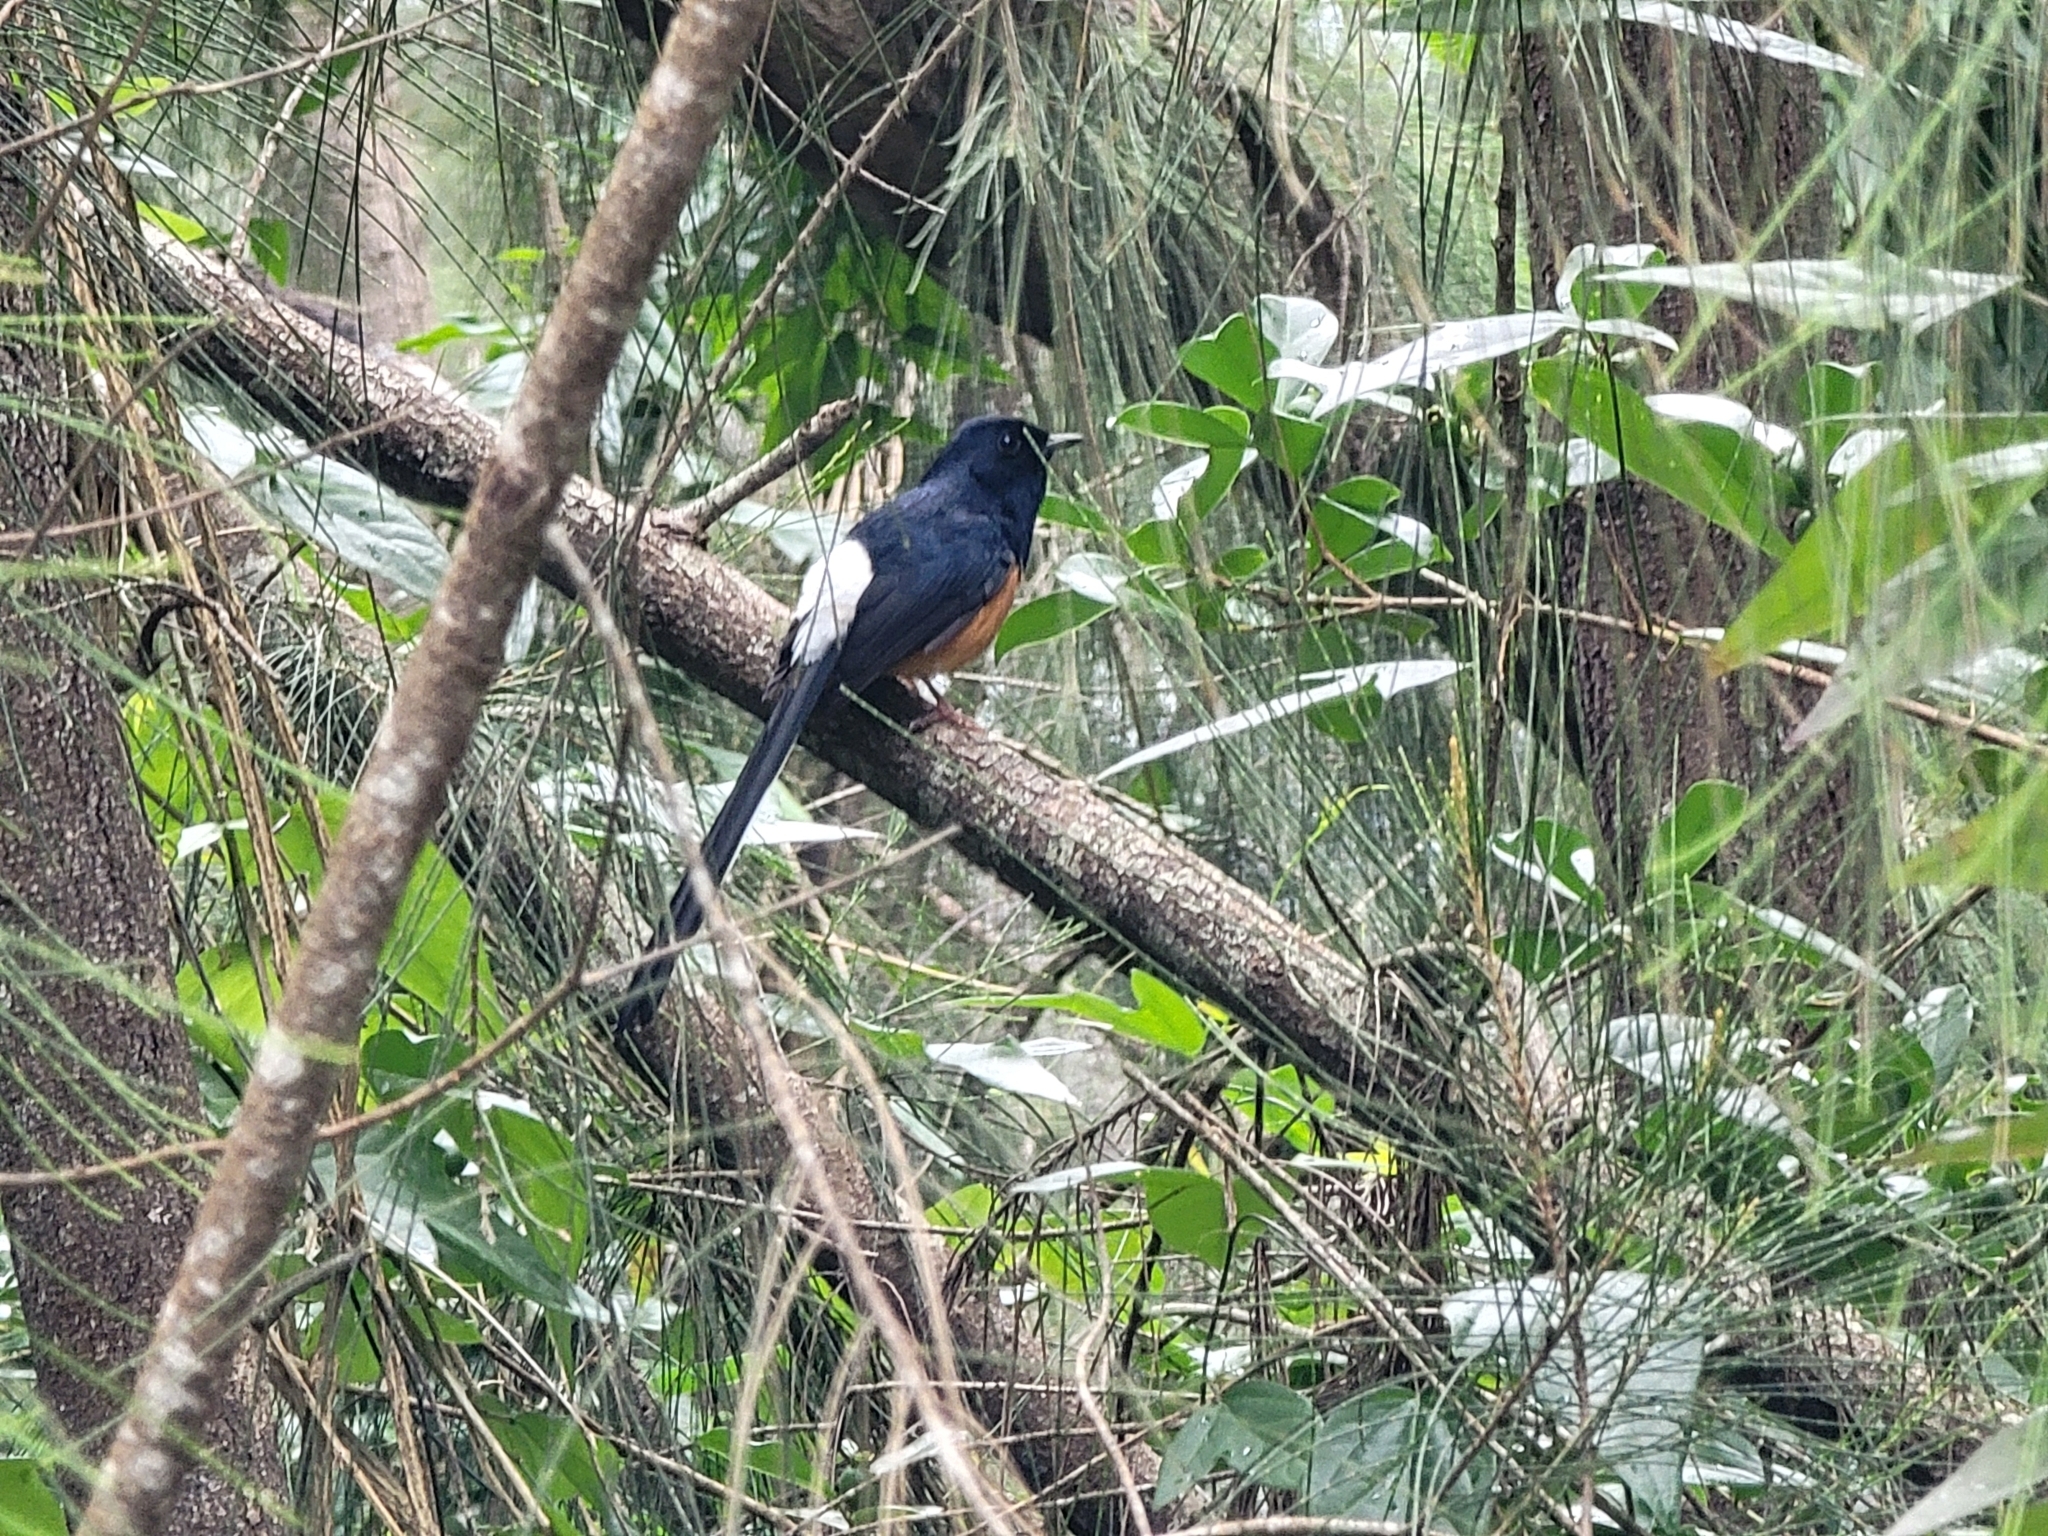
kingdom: Animalia
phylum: Chordata
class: Aves
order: Passeriformes
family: Muscicapidae
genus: Copsychus
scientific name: Copsychus malabaricus
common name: White-rumped shama
